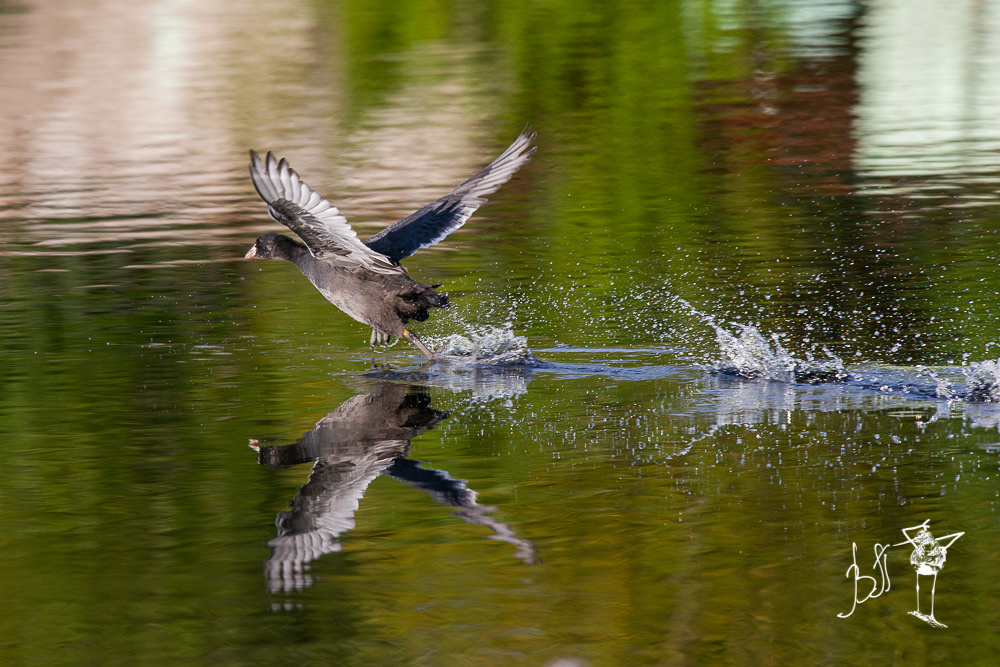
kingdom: Animalia
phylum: Chordata
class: Aves
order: Gruiformes
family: Rallidae
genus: Fulica
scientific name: Fulica atra
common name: Eurasian coot
